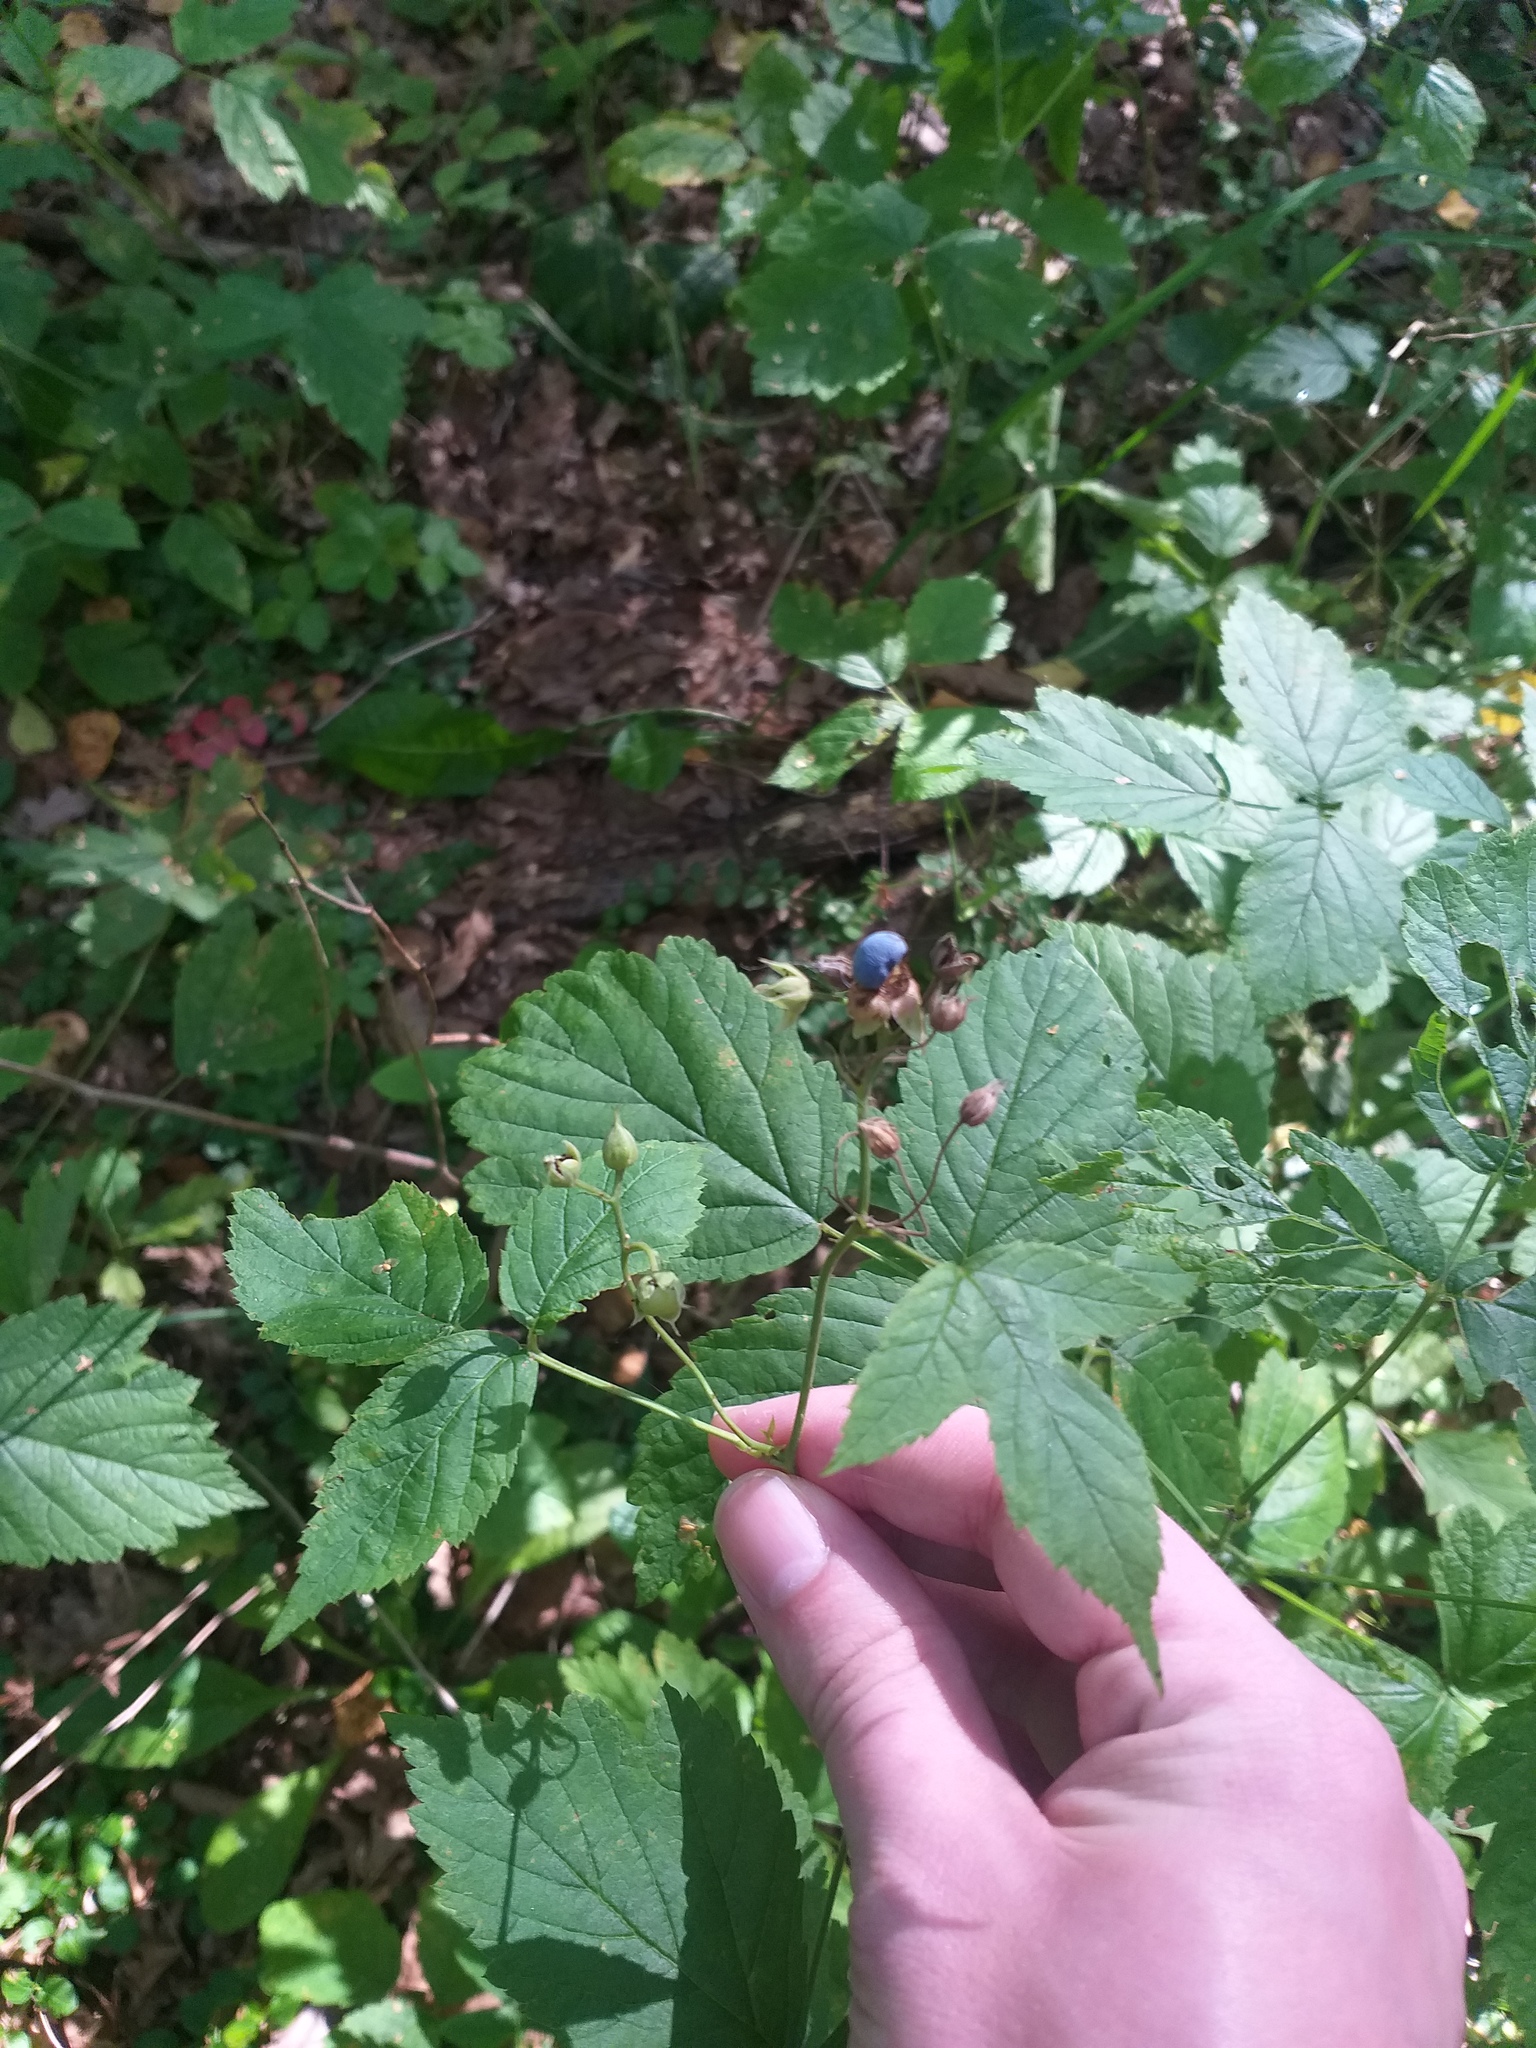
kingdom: Plantae
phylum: Tracheophyta
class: Magnoliopsida
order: Rosales
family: Rosaceae
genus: Rubus
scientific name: Rubus caesius
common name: Dewberry
